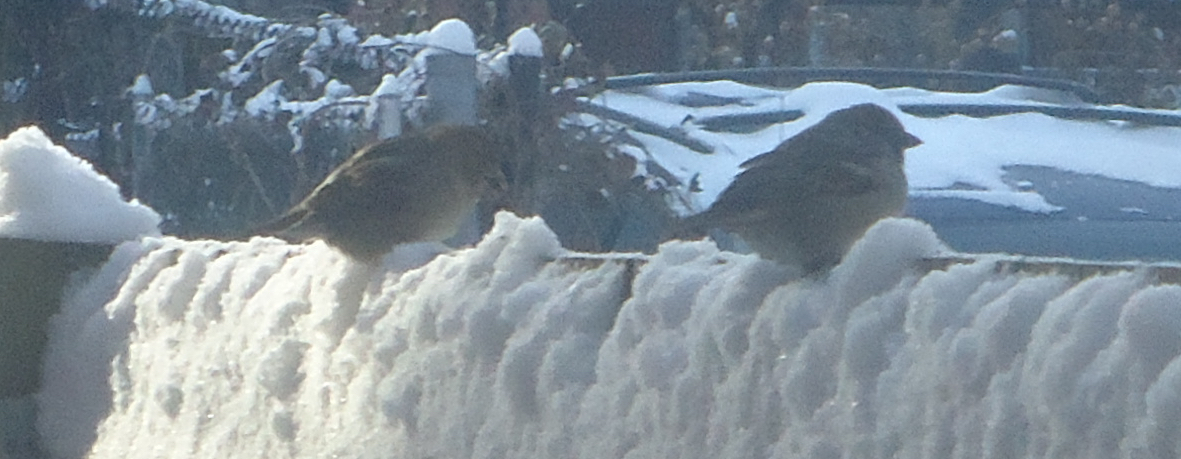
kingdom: Animalia
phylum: Chordata
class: Aves
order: Passeriformes
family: Passeridae
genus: Passer
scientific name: Passer domesticus
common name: House sparrow
